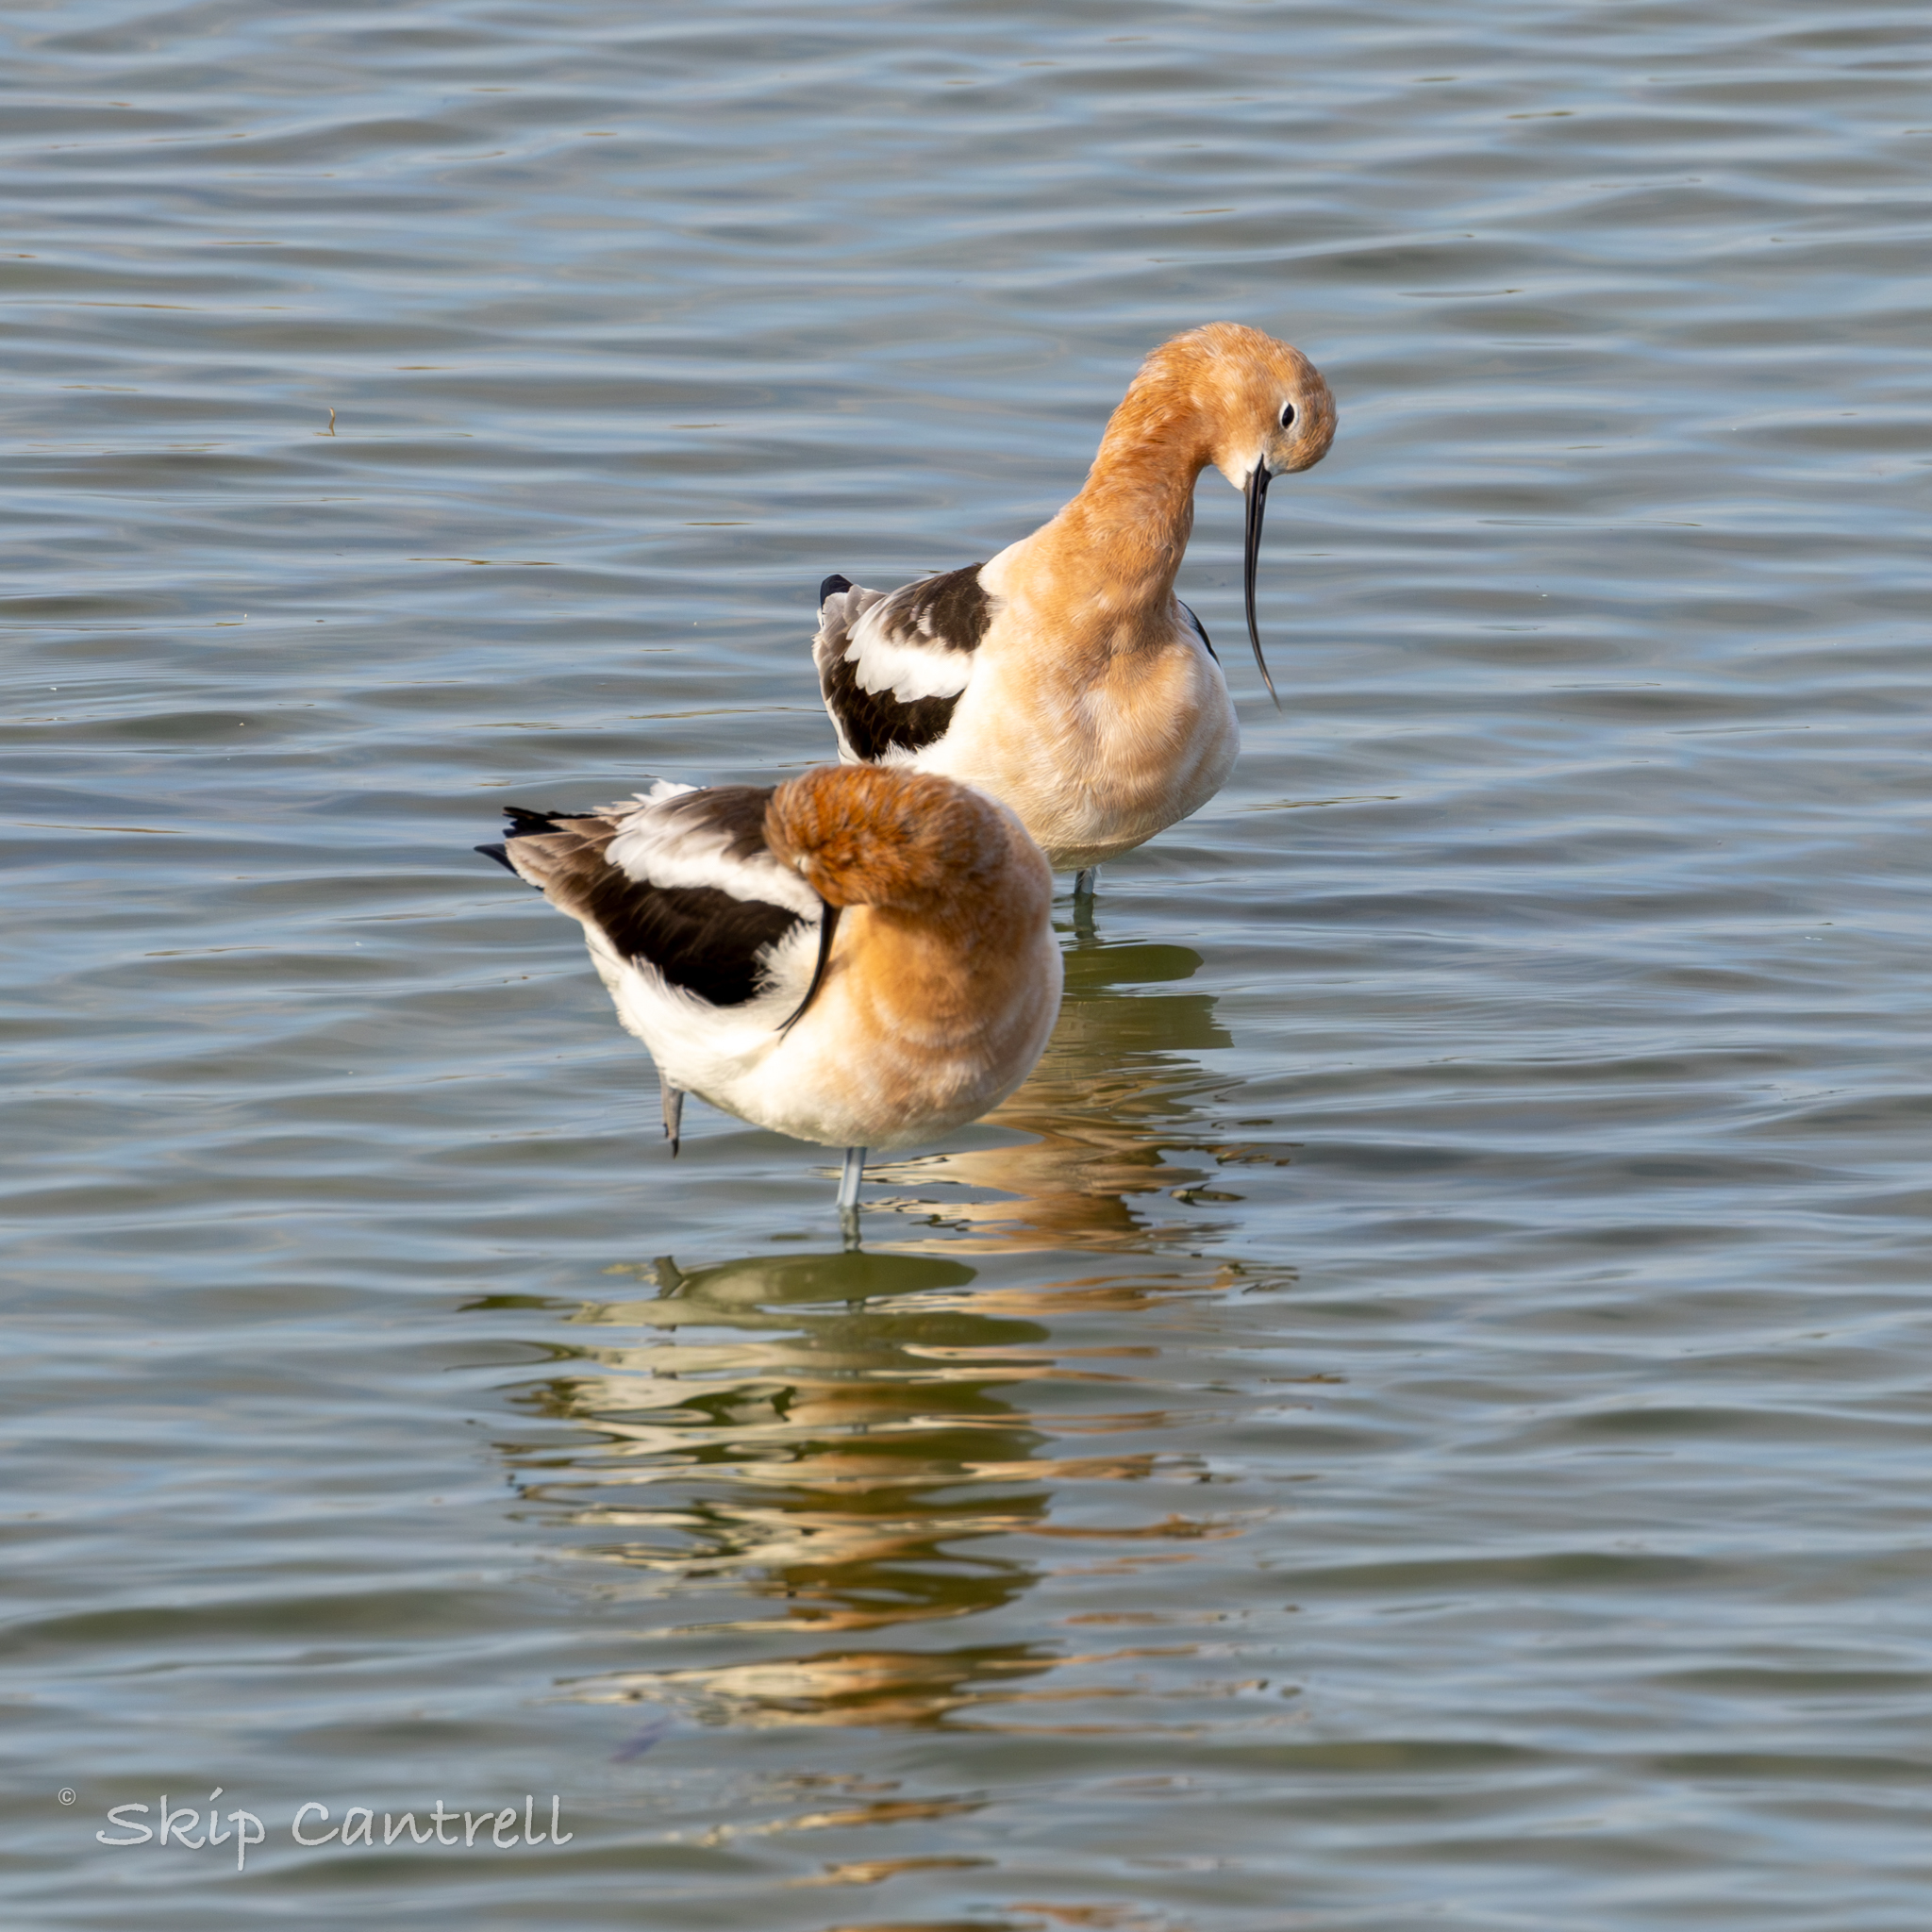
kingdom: Animalia
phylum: Chordata
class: Aves
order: Charadriiformes
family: Recurvirostridae
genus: Recurvirostra
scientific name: Recurvirostra americana
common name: American avocet
